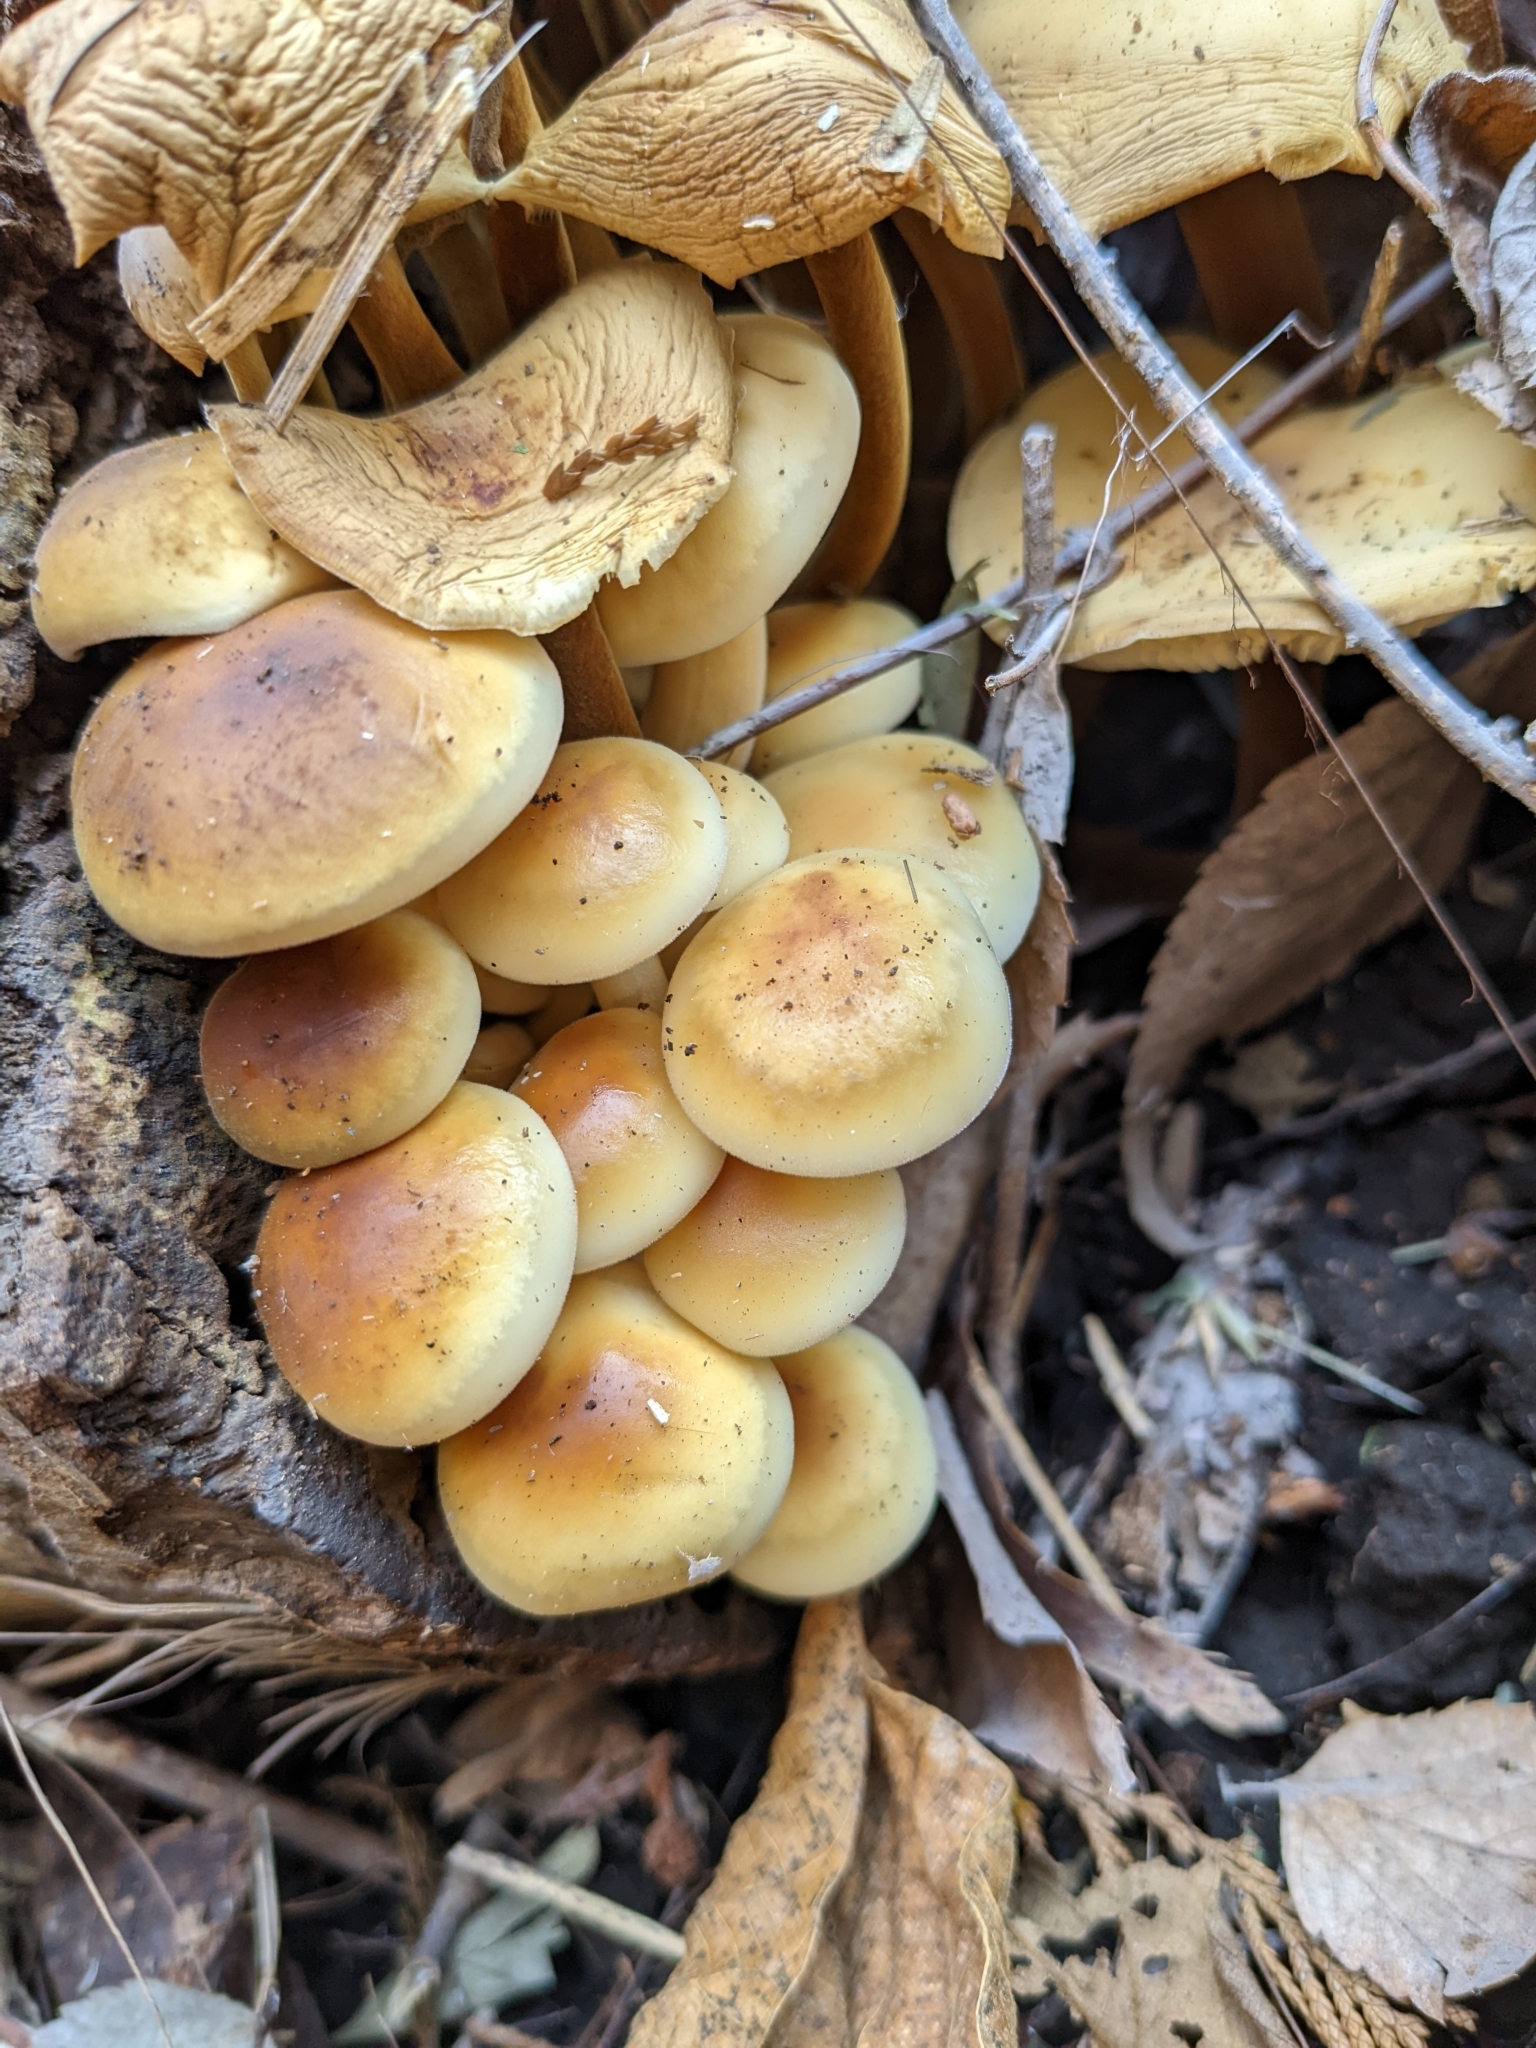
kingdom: Fungi
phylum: Basidiomycota
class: Agaricomycetes
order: Agaricales
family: Physalacriaceae
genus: Flammulina
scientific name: Flammulina velutipes
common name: Velvet shank
